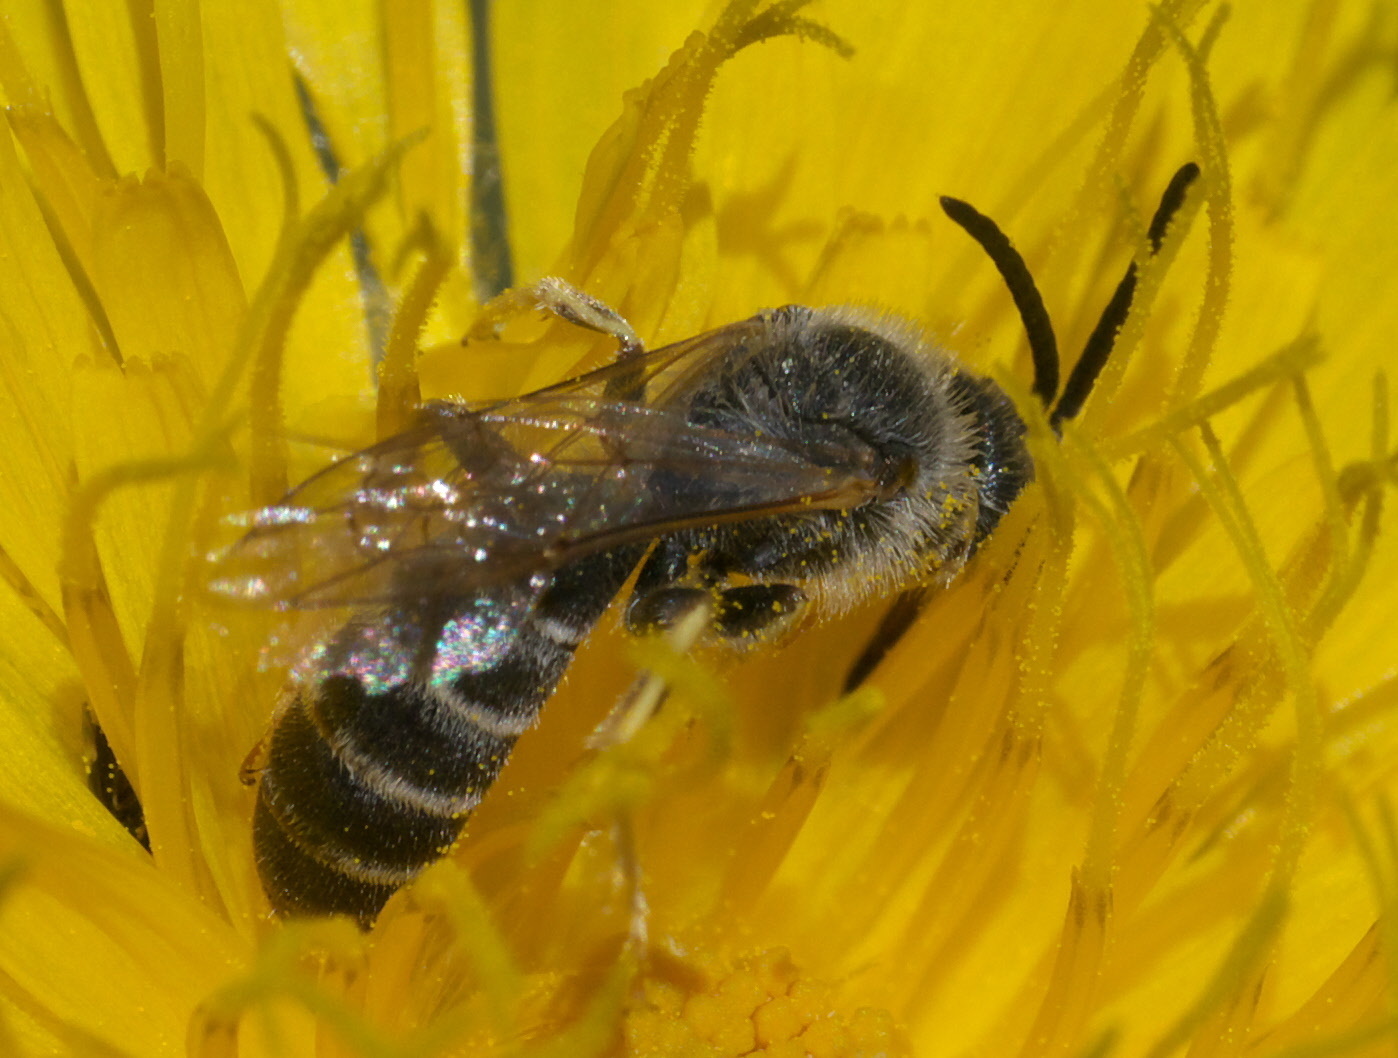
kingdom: Animalia
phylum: Arthropoda
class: Insecta
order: Hymenoptera
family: Halictidae
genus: Halictus
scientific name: Halictus rubicundus
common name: Orange-legged furrow bee
